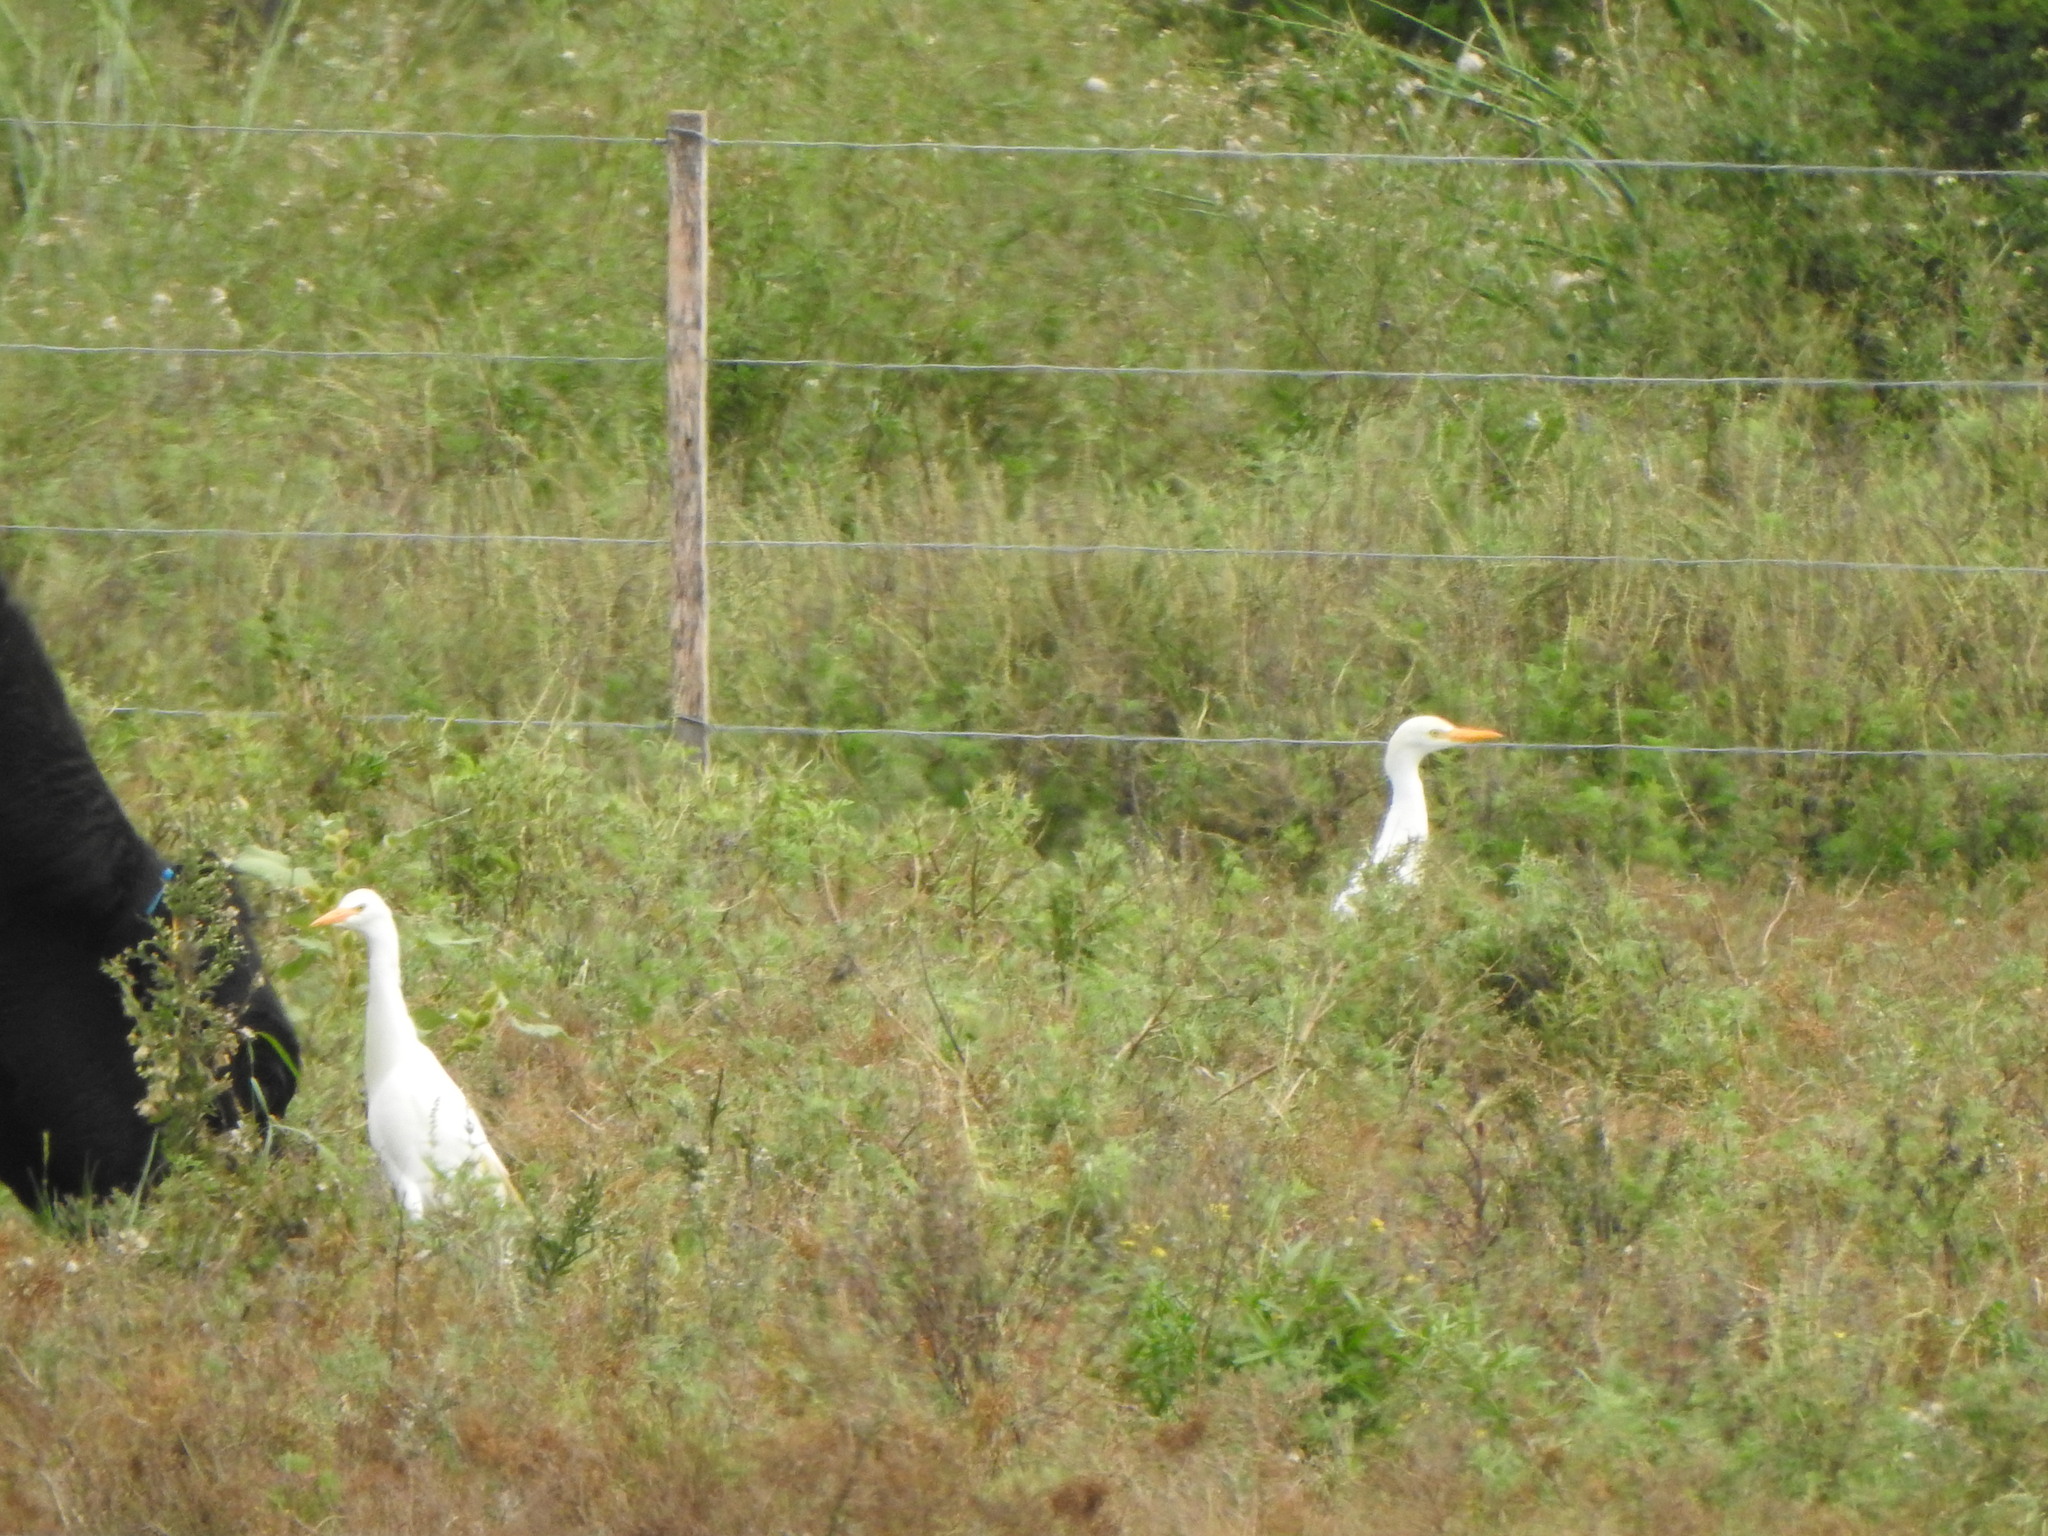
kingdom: Animalia
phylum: Chordata
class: Aves
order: Pelecaniformes
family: Ardeidae
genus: Bubulcus
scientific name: Bubulcus ibis
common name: Cattle egret
